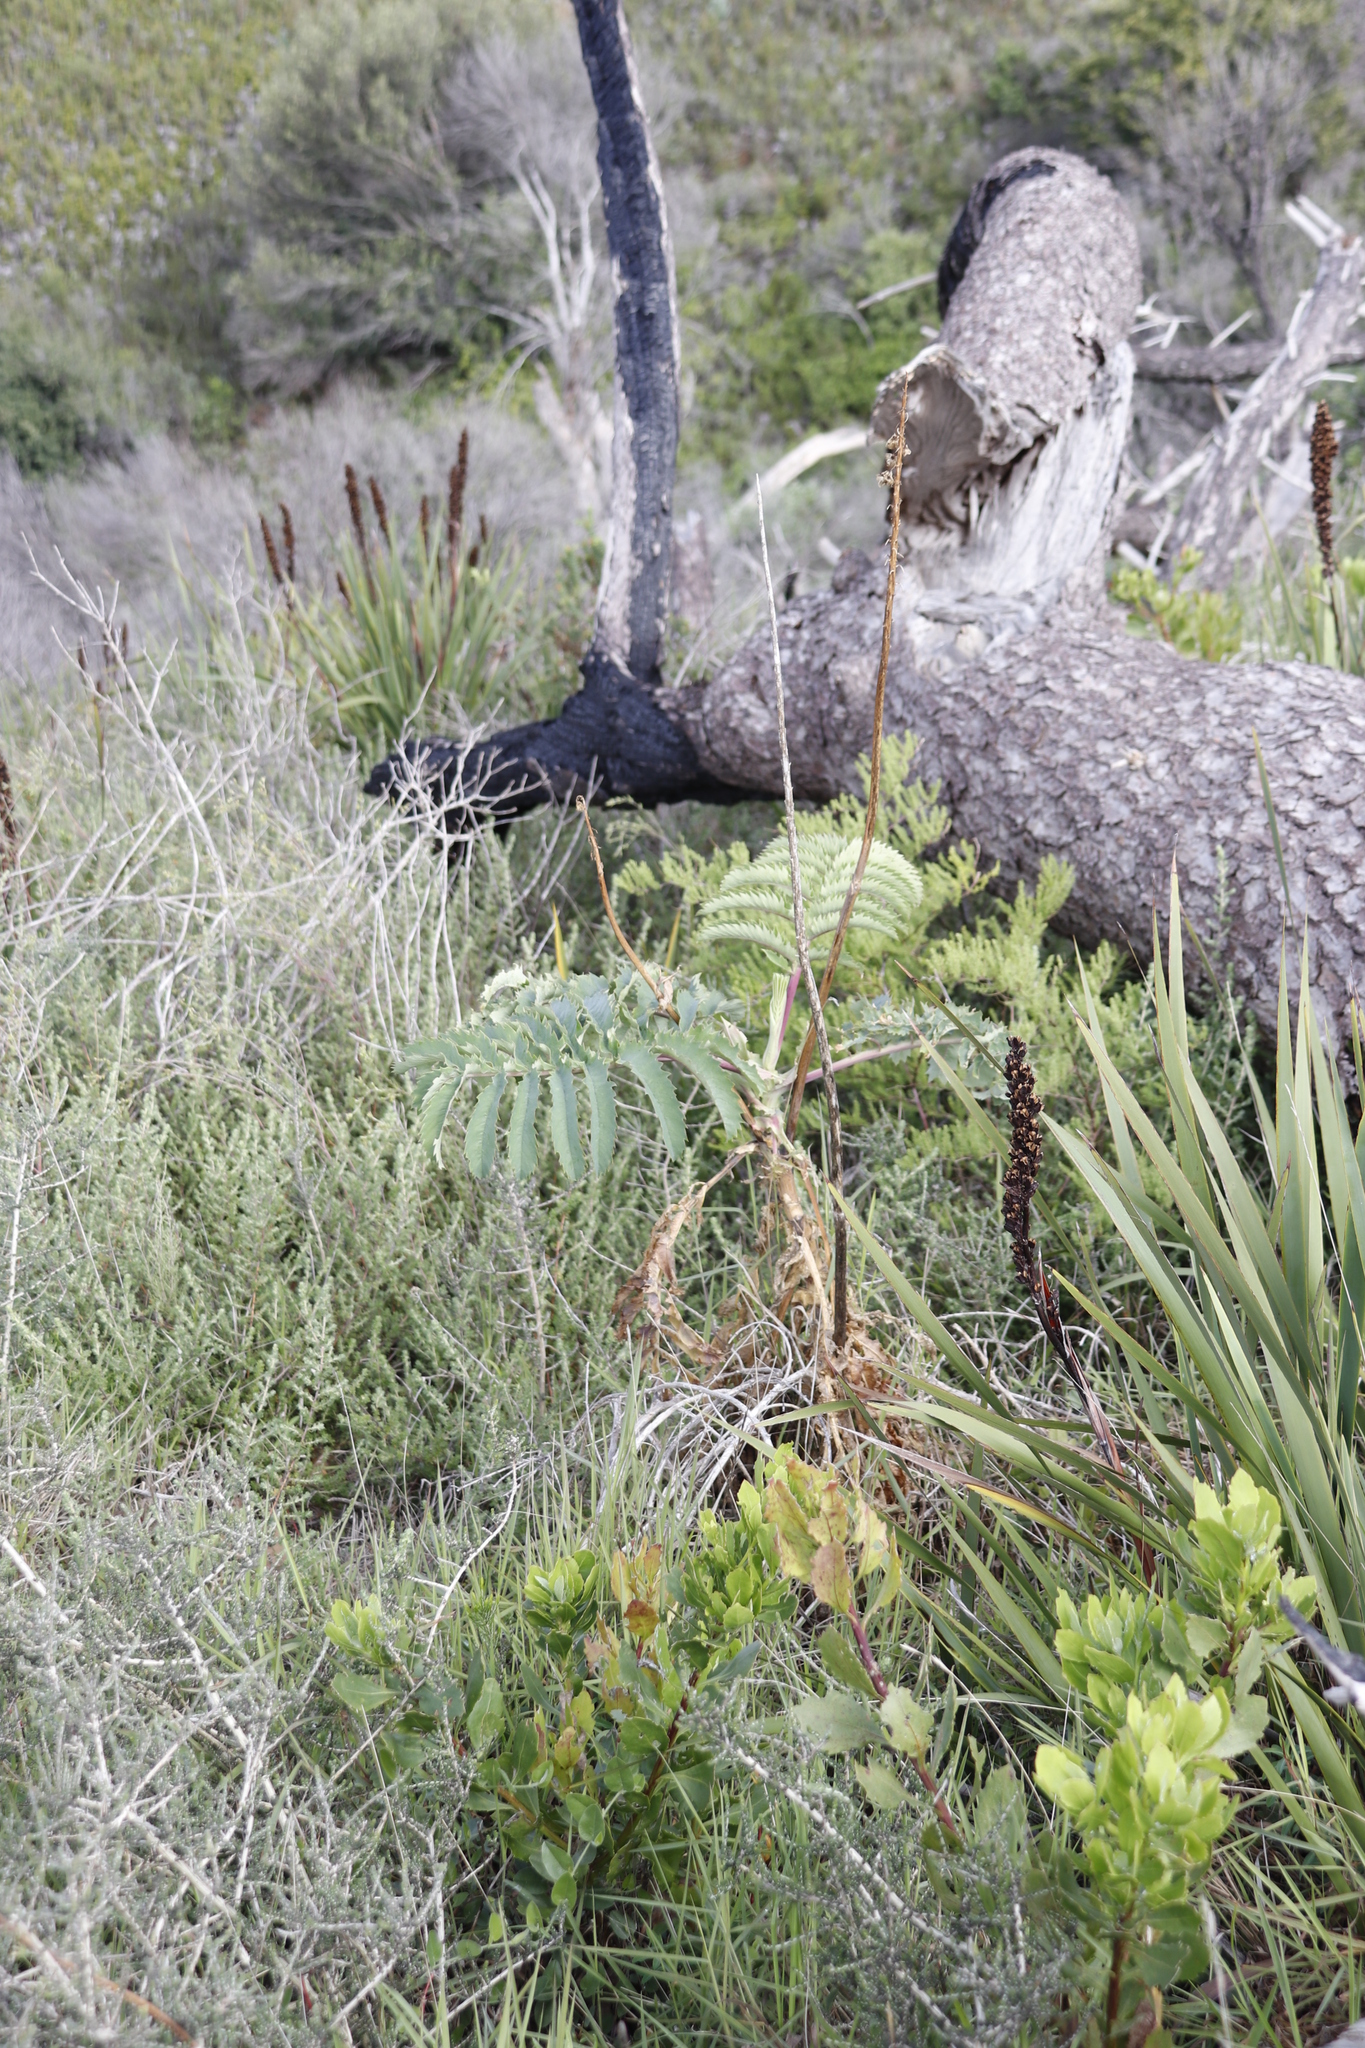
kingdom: Plantae
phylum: Tracheophyta
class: Magnoliopsida
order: Geraniales
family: Melianthaceae
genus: Melianthus
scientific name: Melianthus major
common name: Honey-flower
